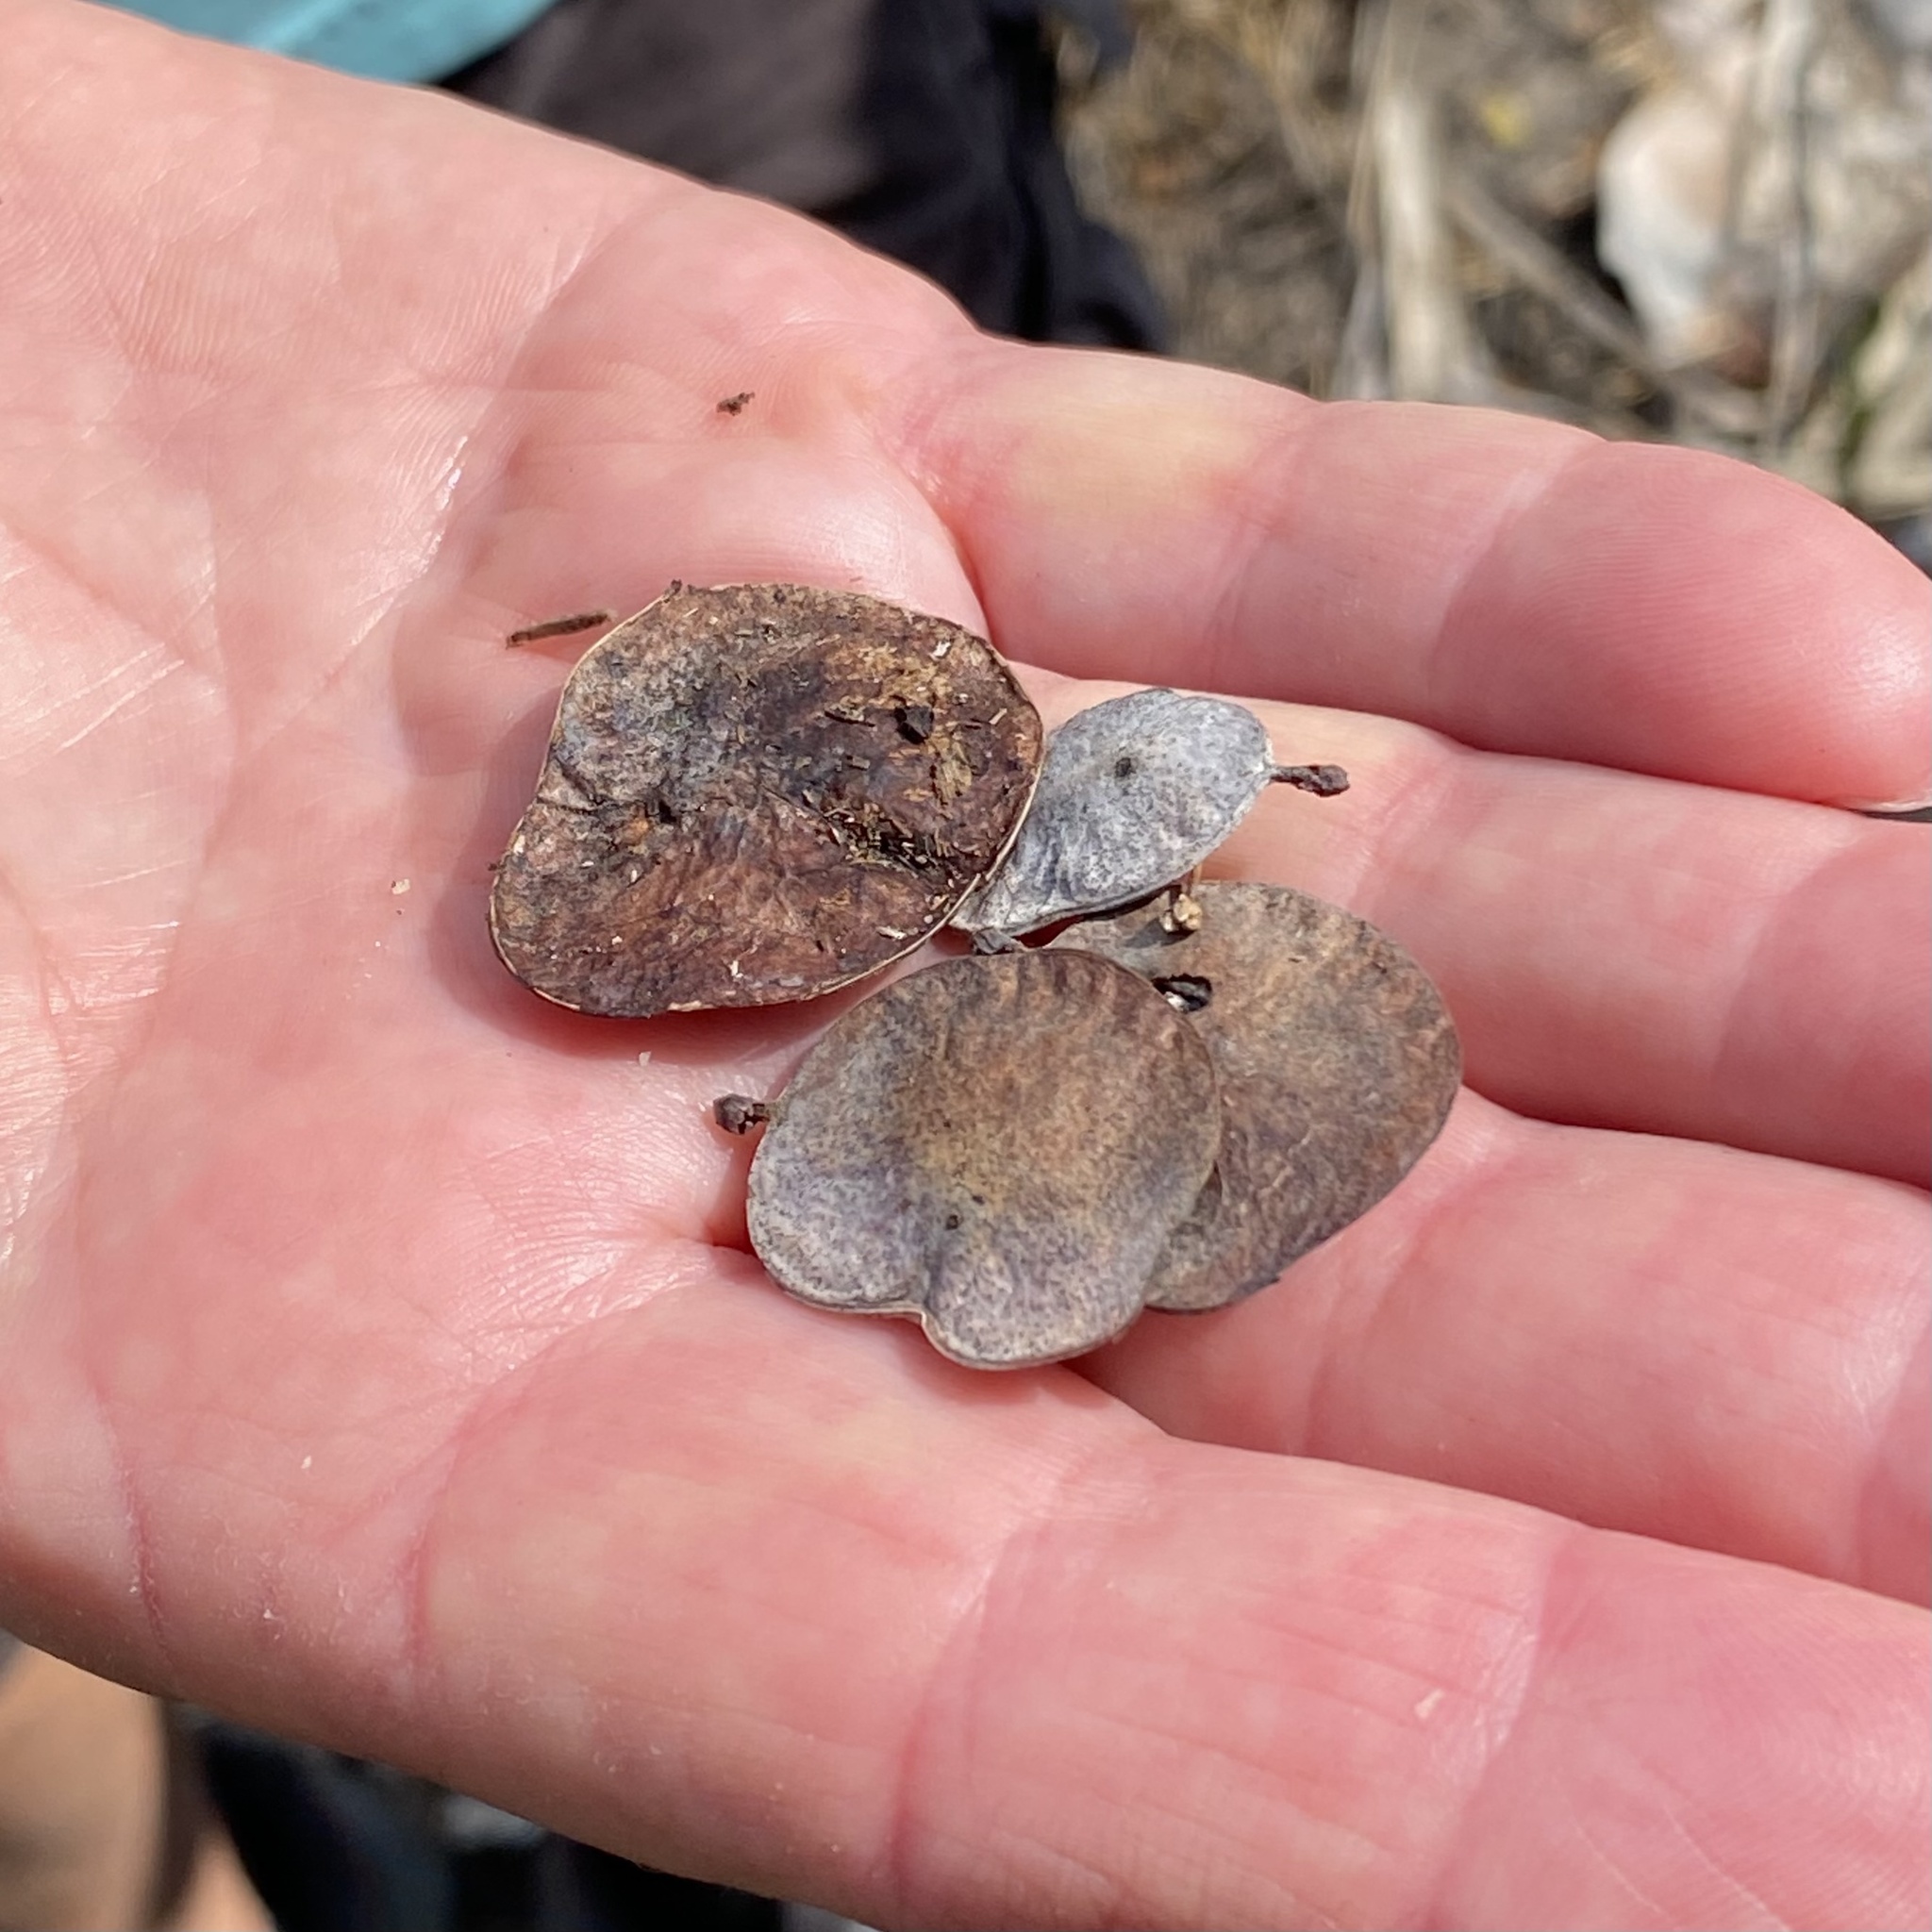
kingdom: Plantae
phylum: Tracheophyta
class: Magnoliopsida
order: Fabales
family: Fabaceae
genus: Dalbergia
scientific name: Dalbergia ecastaphyllum
